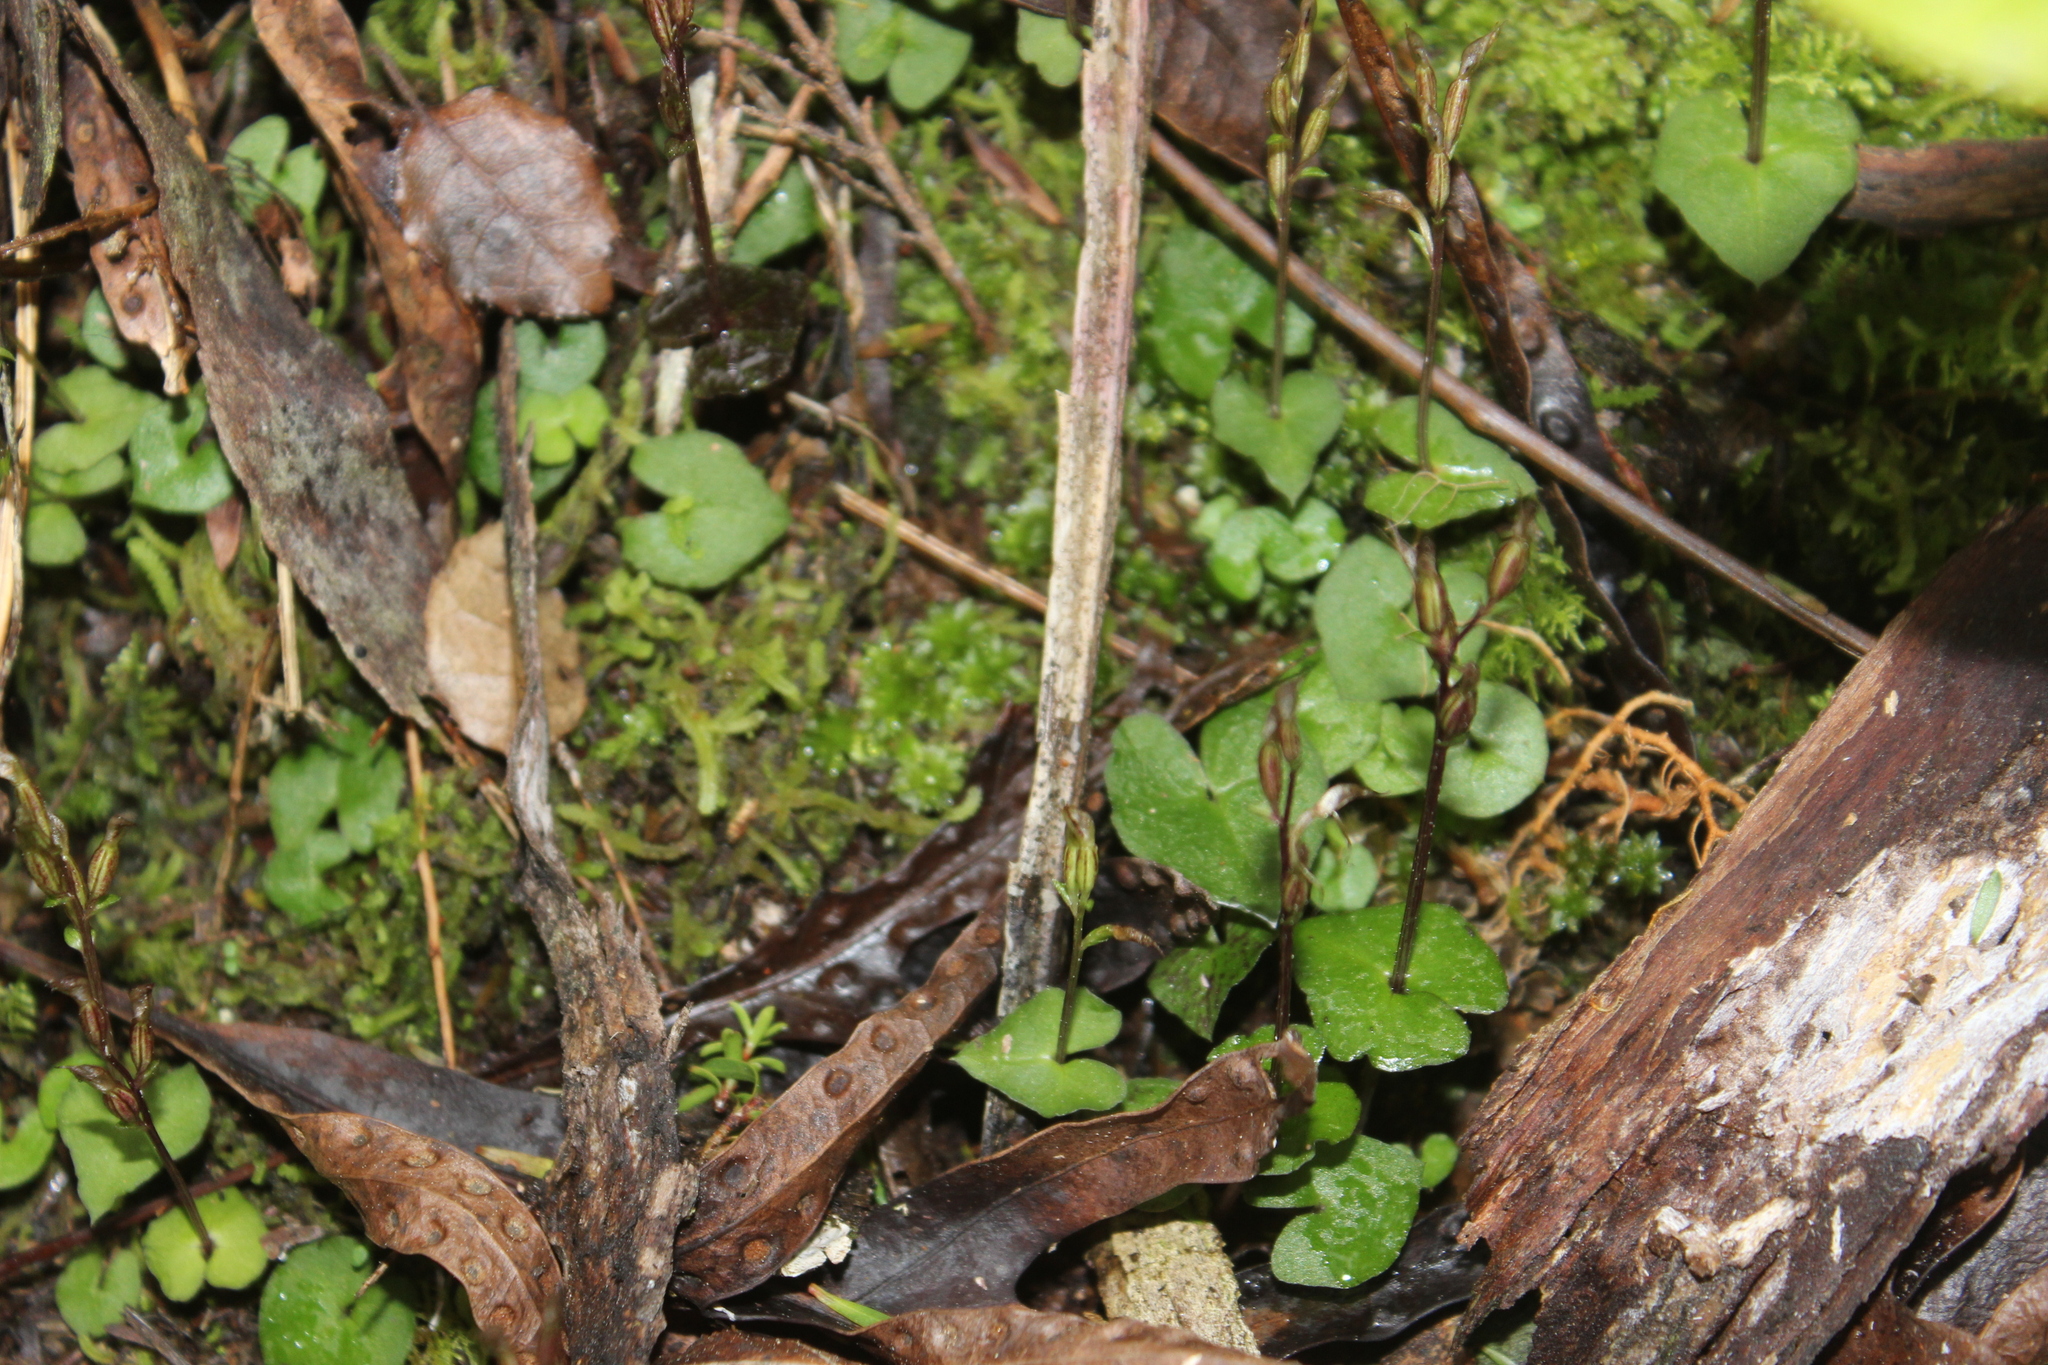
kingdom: Plantae
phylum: Tracheophyta
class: Liliopsida
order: Asparagales
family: Orchidaceae
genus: Acianthus
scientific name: Acianthus sinclairii
